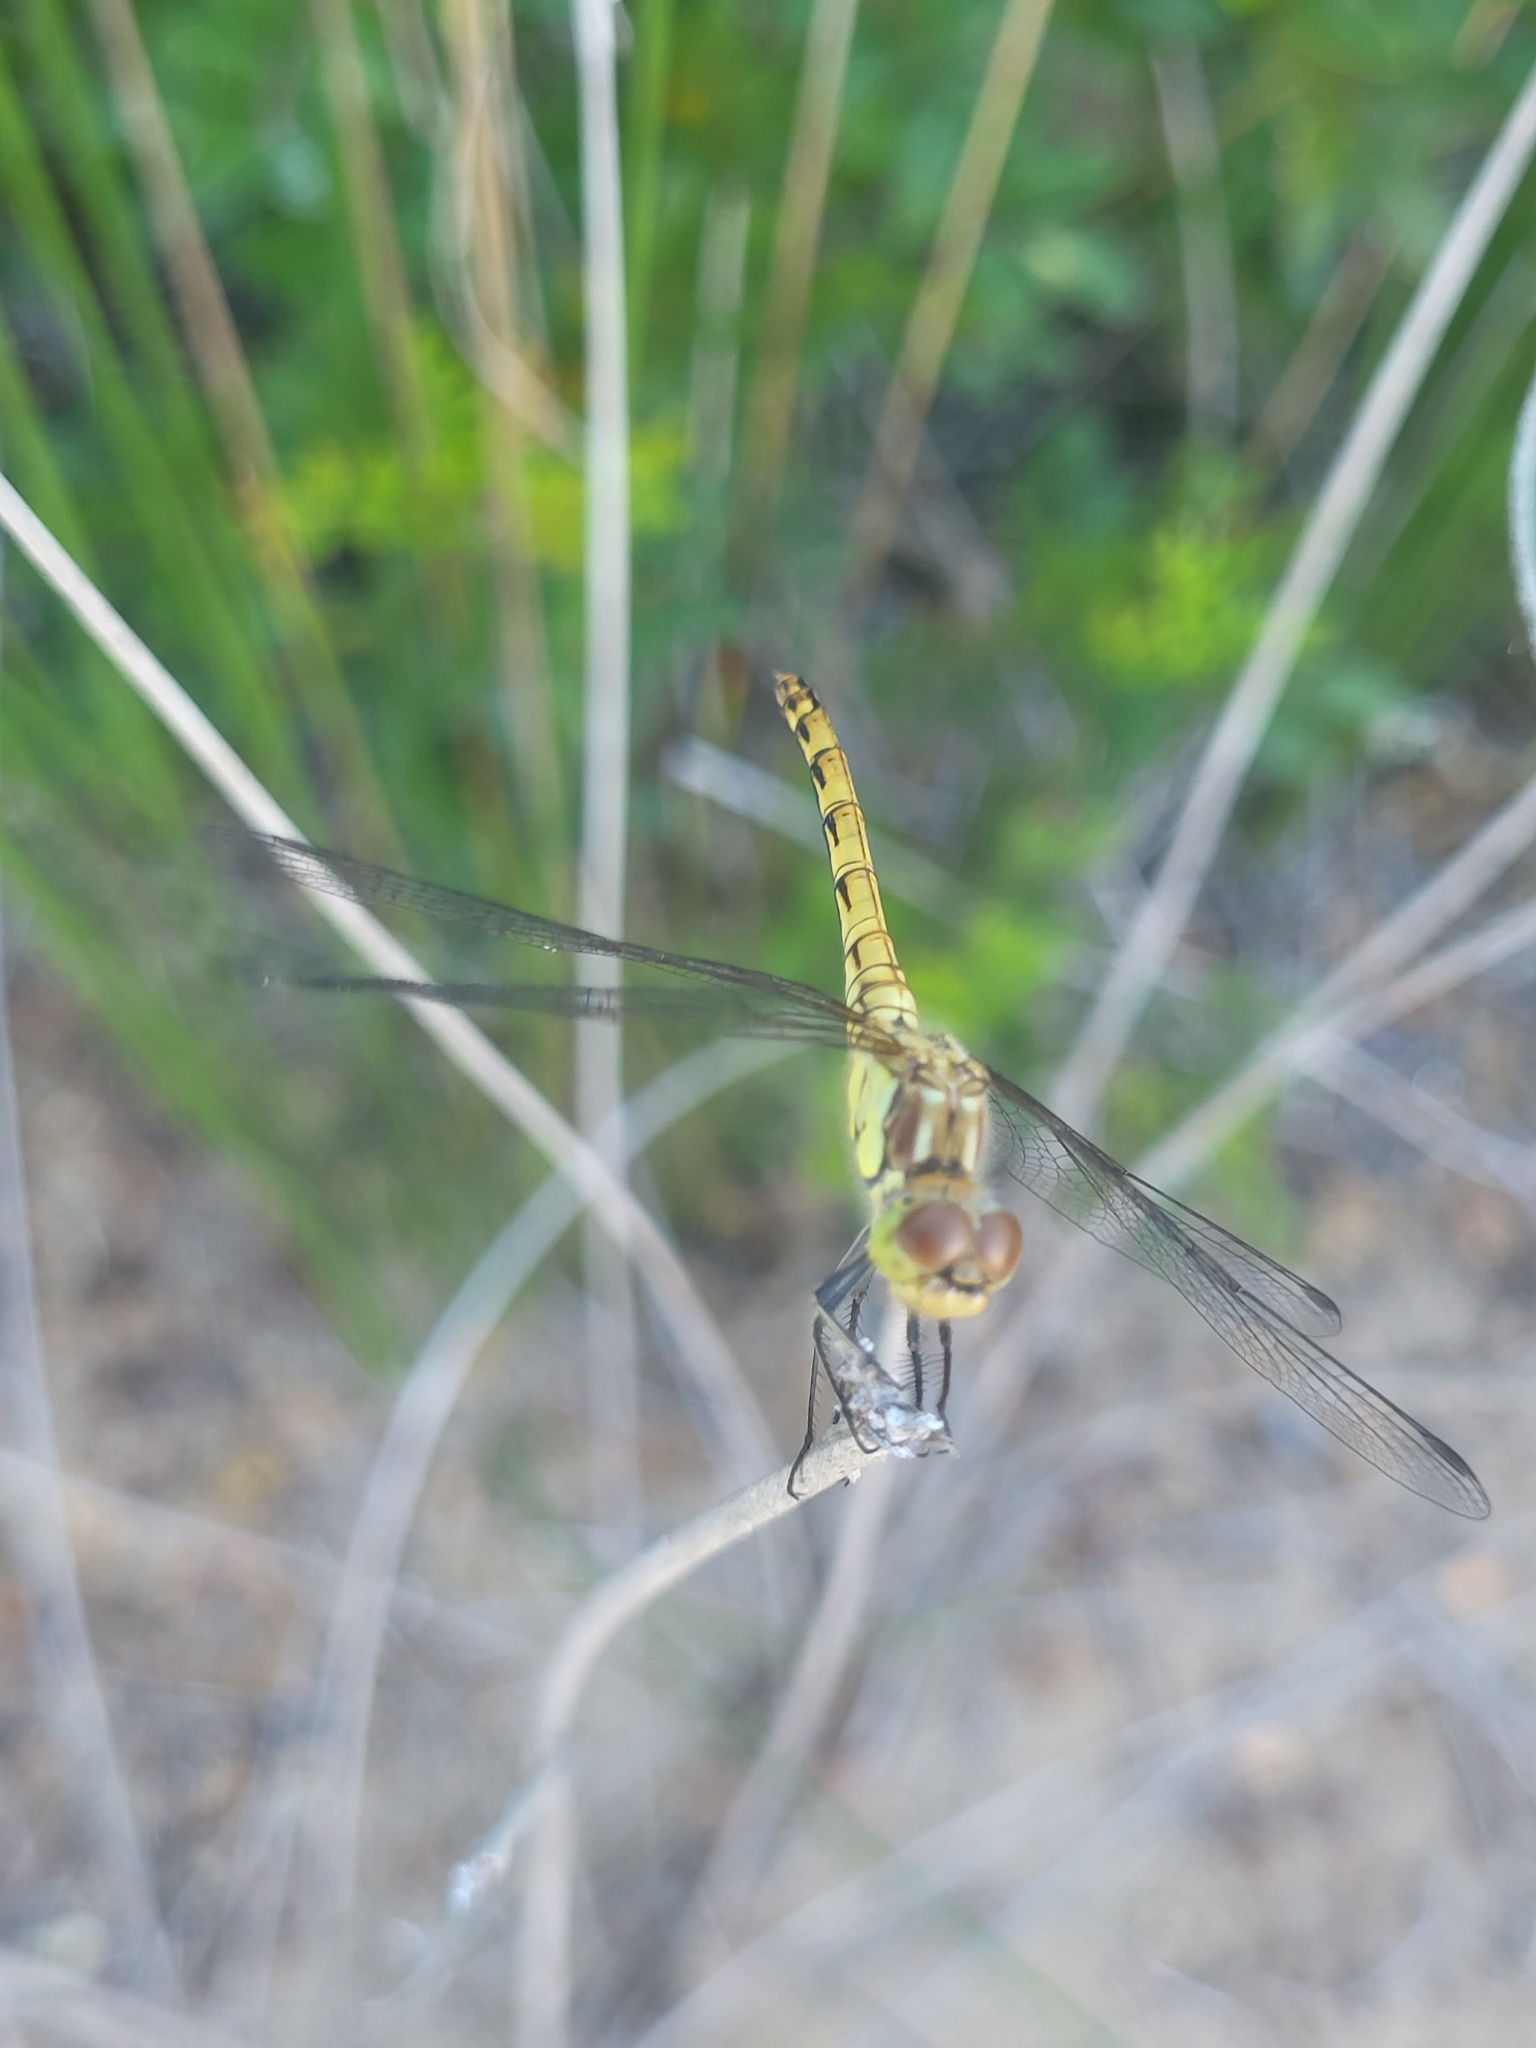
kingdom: Animalia
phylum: Arthropoda
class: Insecta
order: Odonata
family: Libellulidae
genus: Sympetrum
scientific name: Sympetrum striolatum
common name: Common darter
